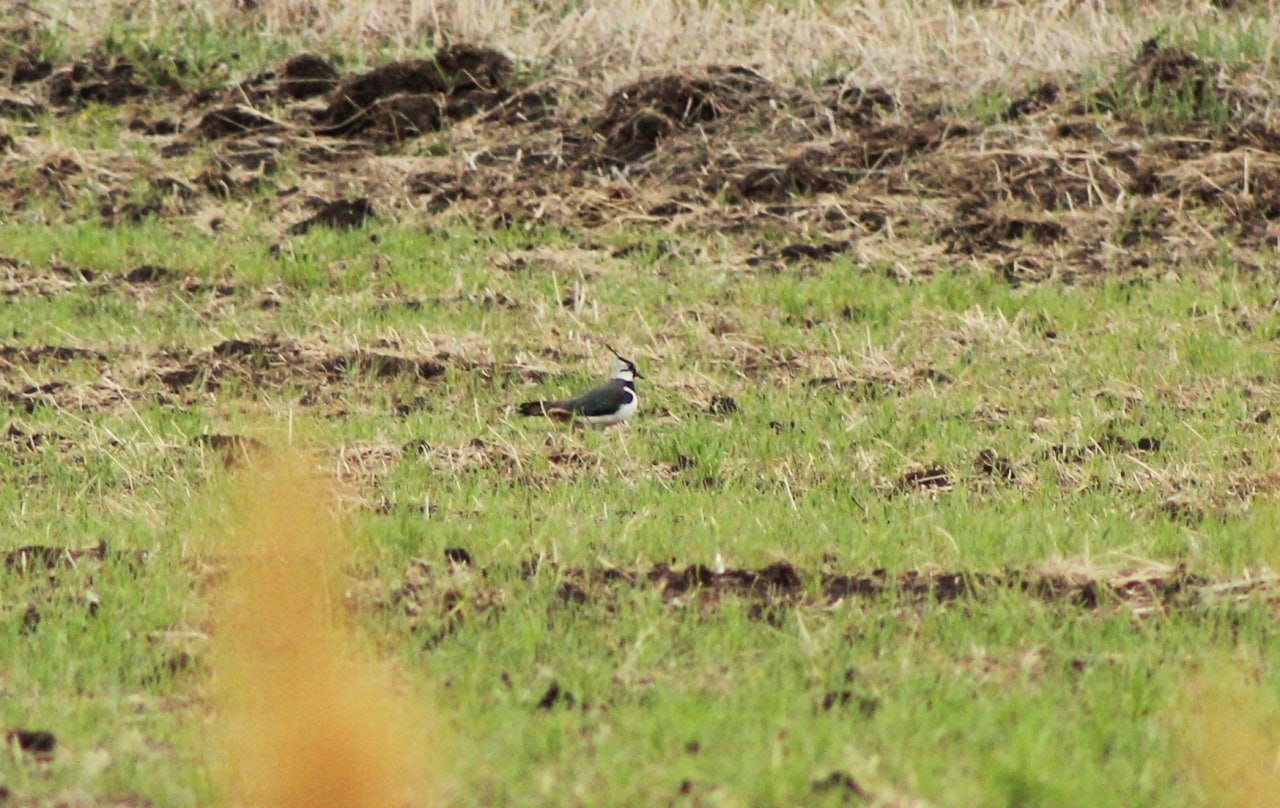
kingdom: Animalia
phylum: Chordata
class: Aves
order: Charadriiformes
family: Charadriidae
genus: Vanellus
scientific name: Vanellus vanellus
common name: Northern lapwing
